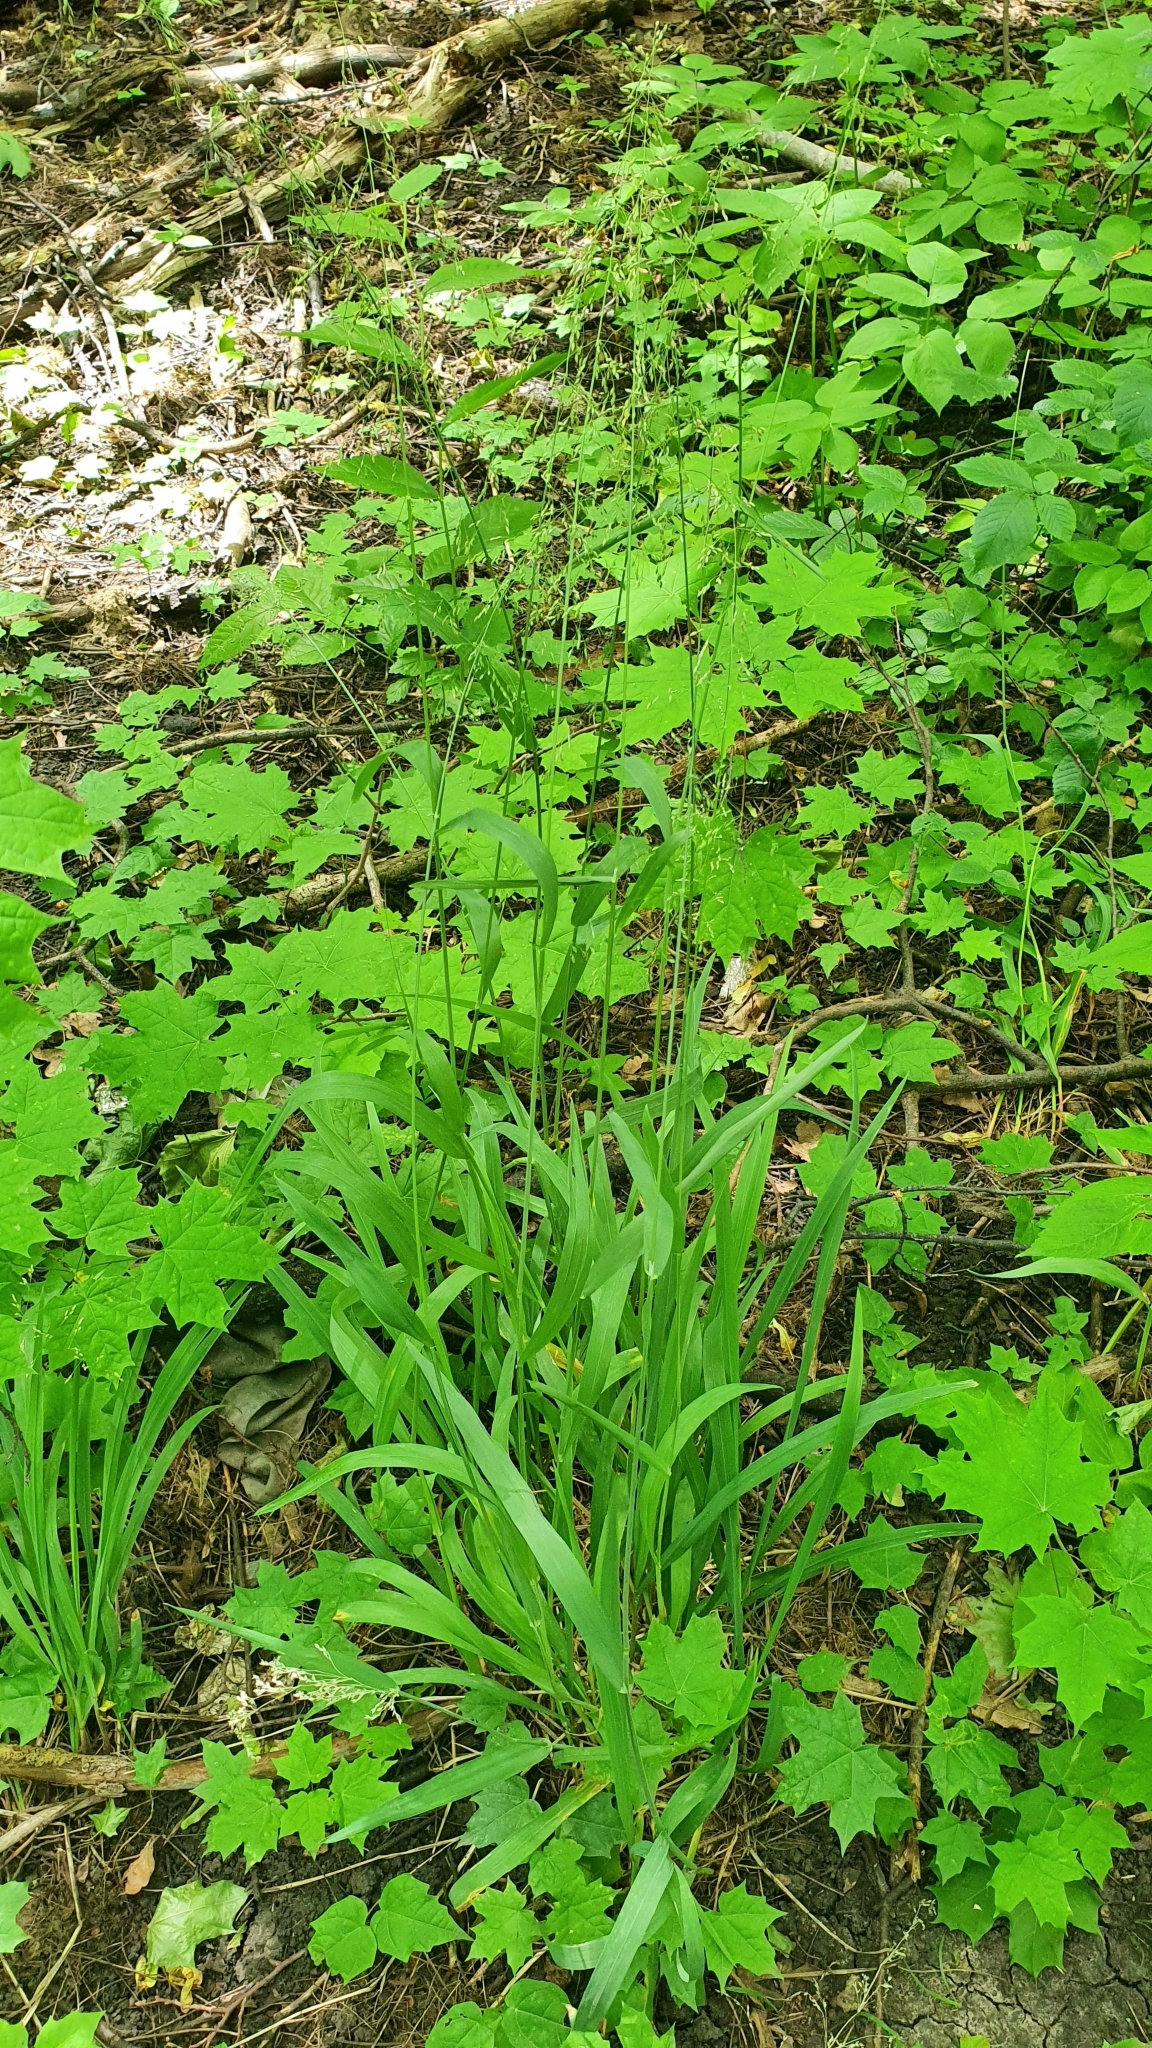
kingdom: Plantae
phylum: Tracheophyta
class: Liliopsida
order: Poales
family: Poaceae
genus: Milium
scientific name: Milium effusum
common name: Wood millet
